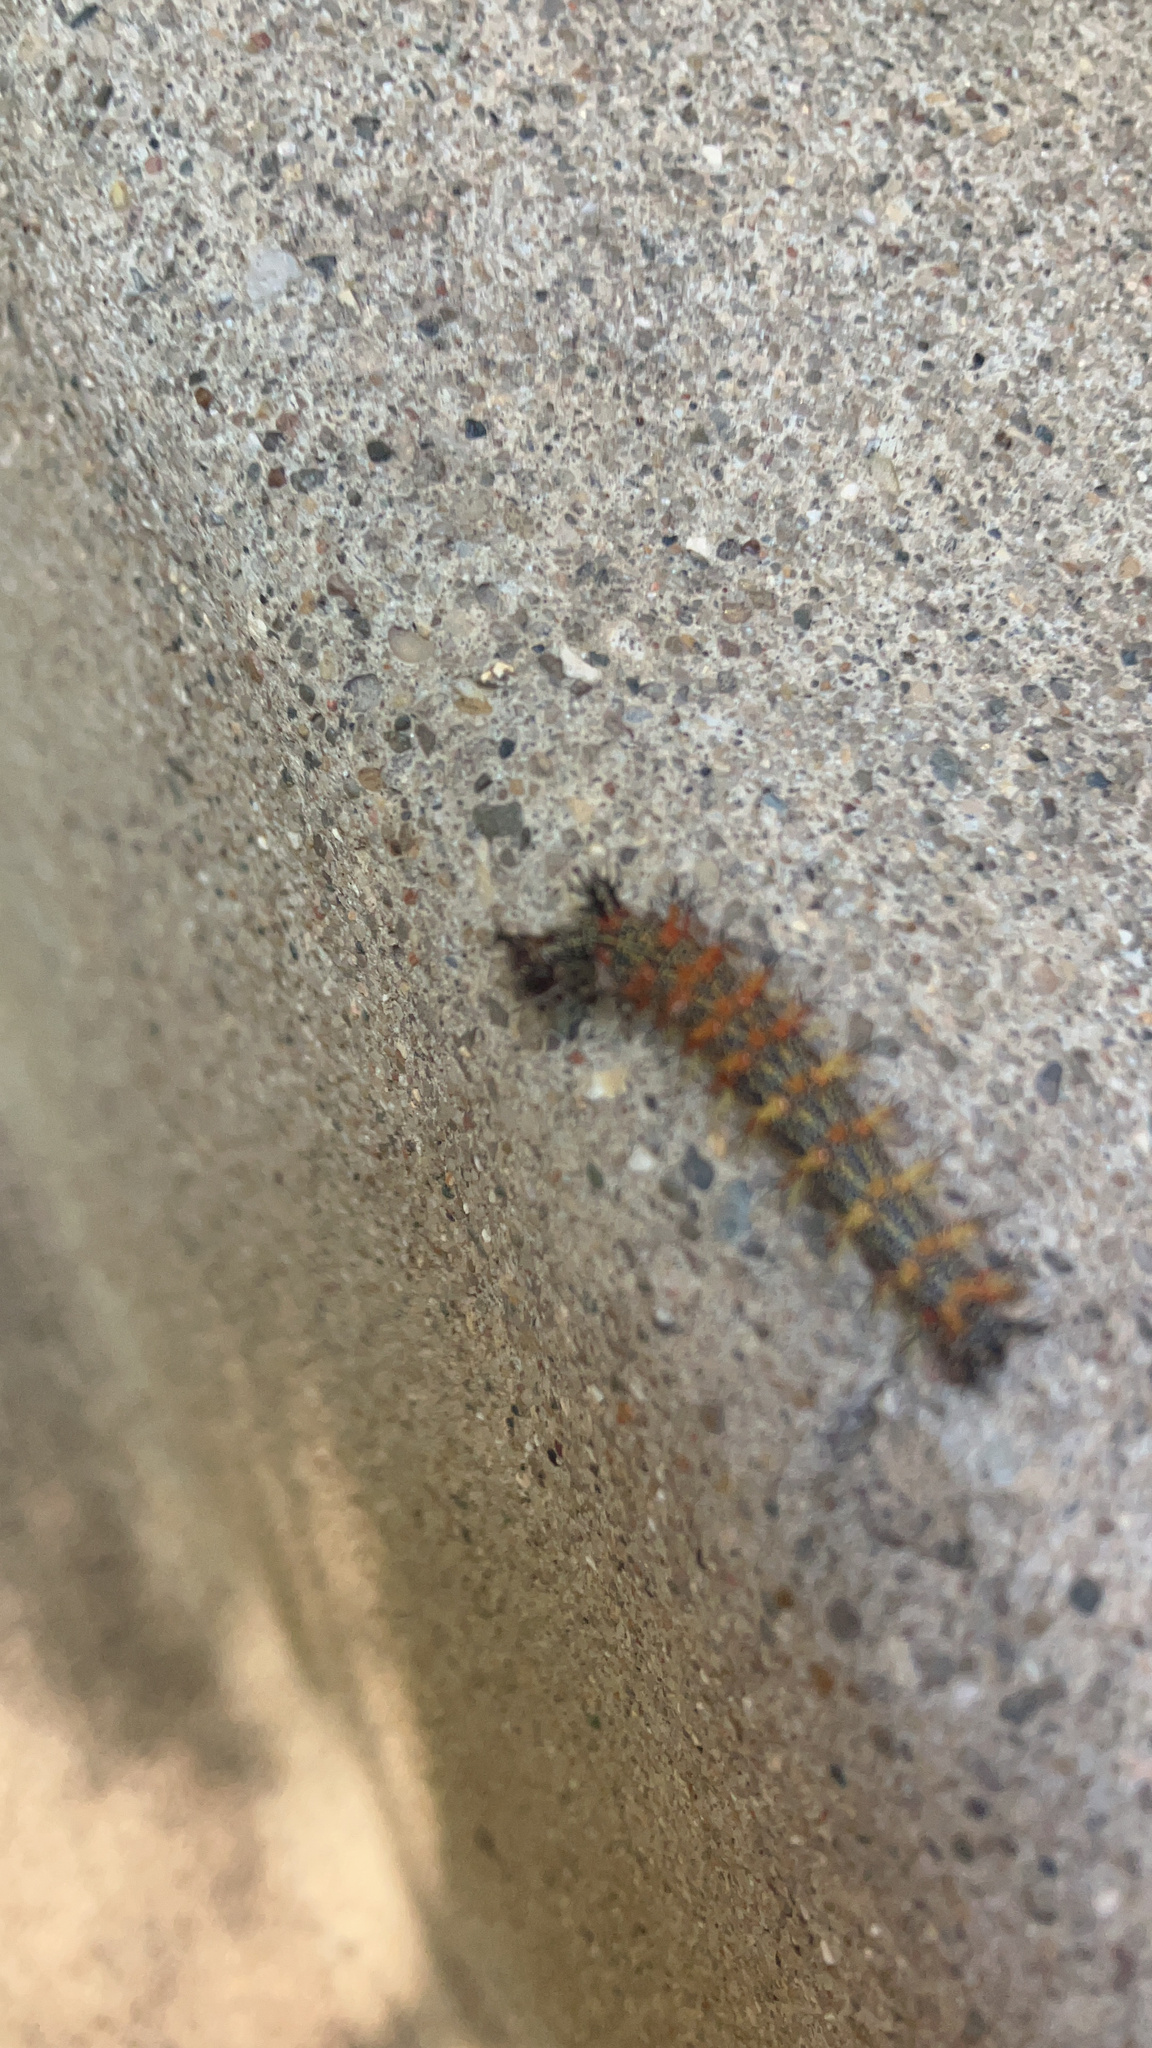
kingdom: Animalia
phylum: Arthropoda
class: Insecta
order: Lepidoptera
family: Nymphalidae
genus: Polygonia
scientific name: Polygonia interrogationis
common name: Question mark
